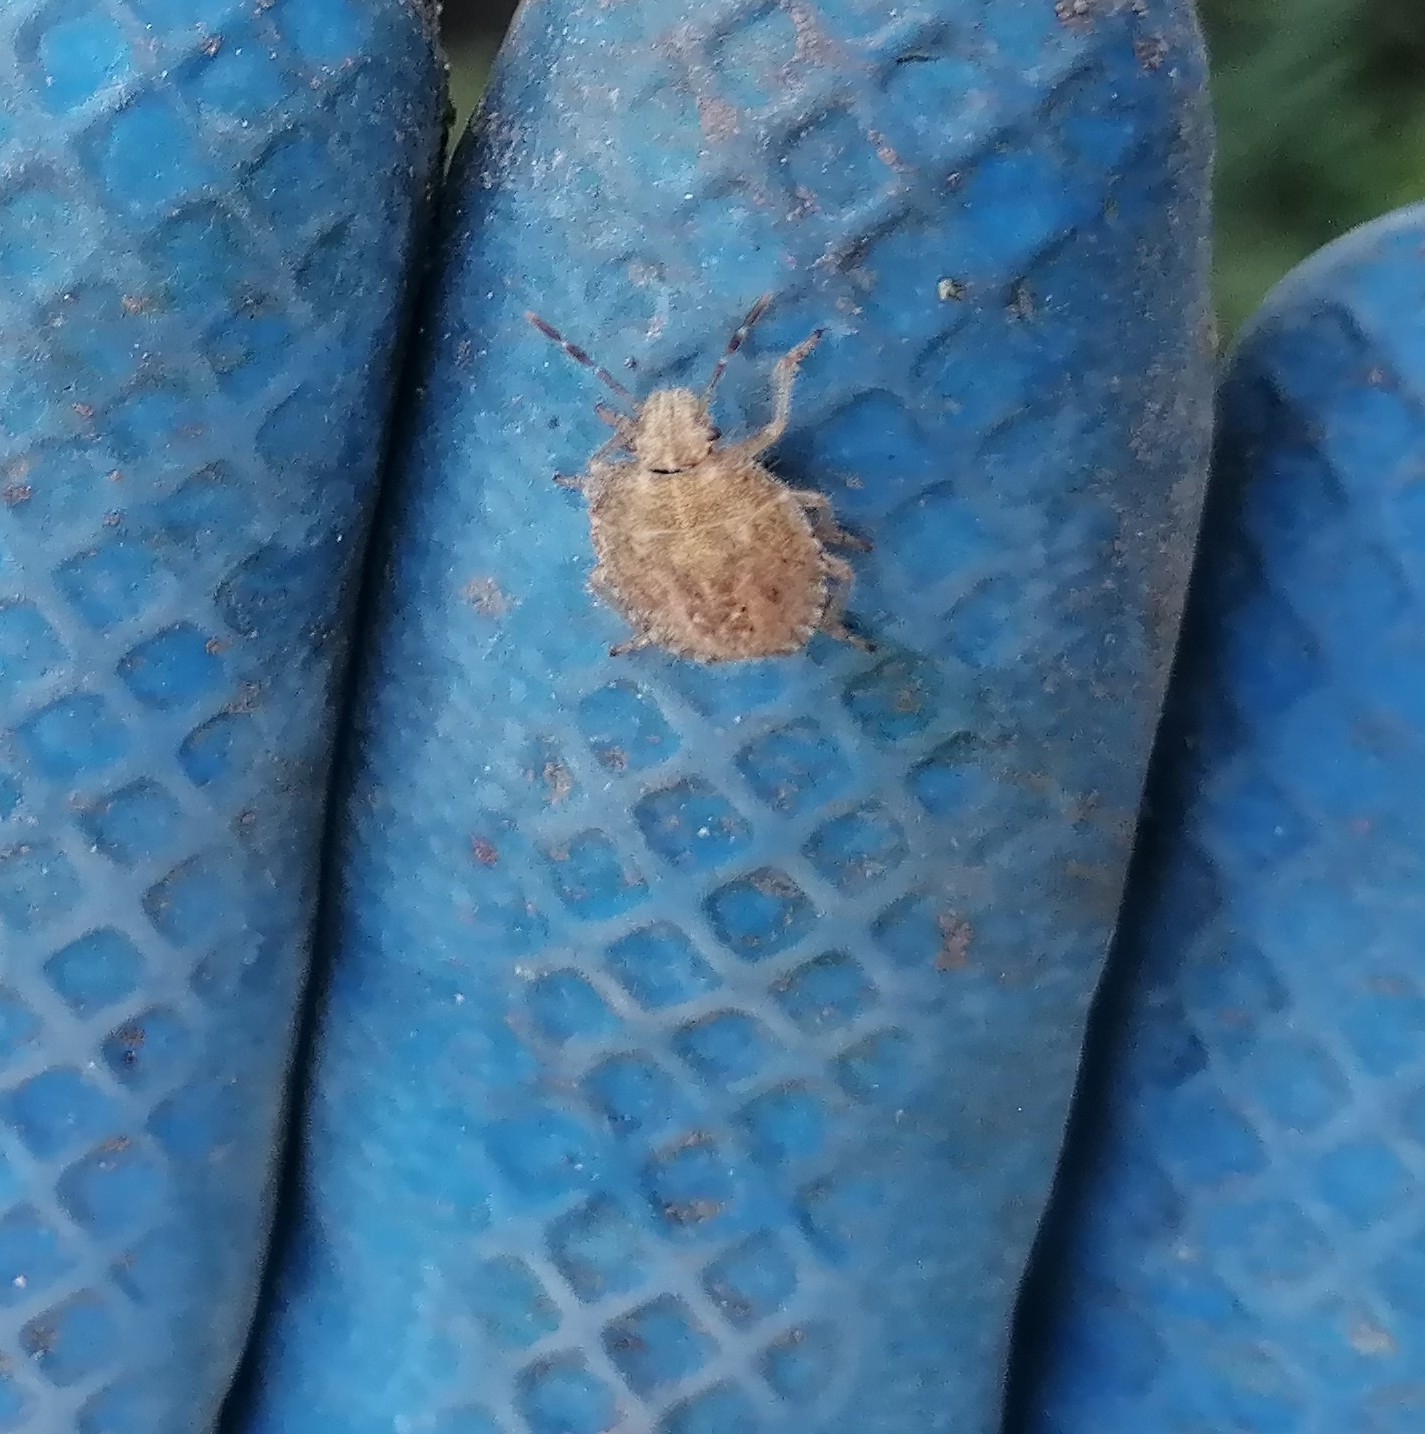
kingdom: Animalia
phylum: Arthropoda
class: Insecta
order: Hemiptera
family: Pentatomidae
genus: Dolycoris
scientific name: Dolycoris baccarum
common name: Sloe bug
